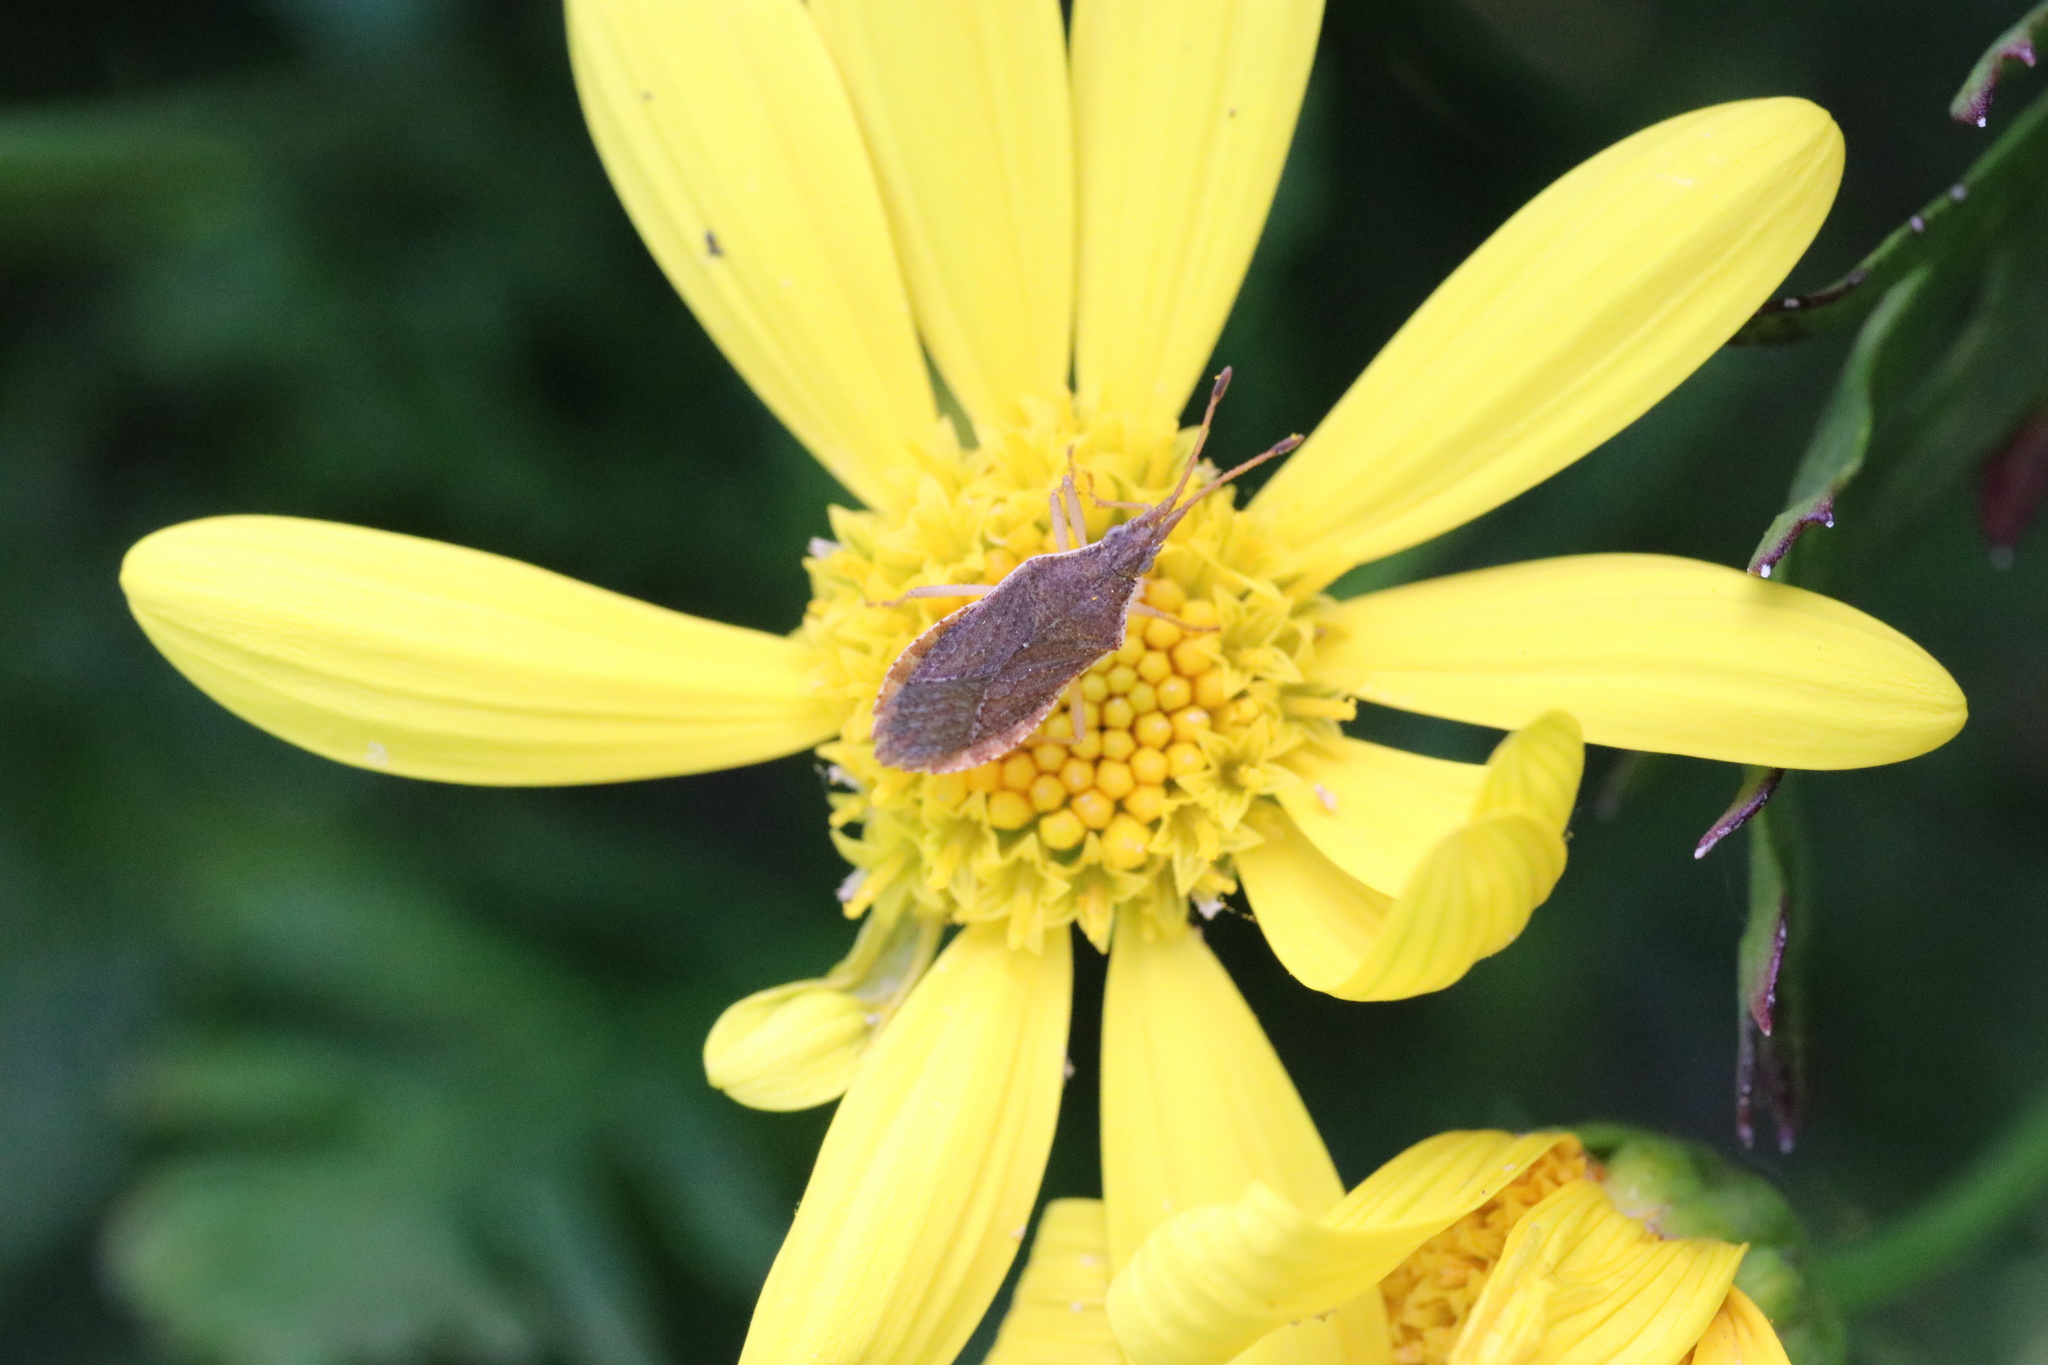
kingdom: Animalia
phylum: Arthropoda
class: Insecta
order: Hemiptera
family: Coreidae
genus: Althos
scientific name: Althos sinuaticollis
